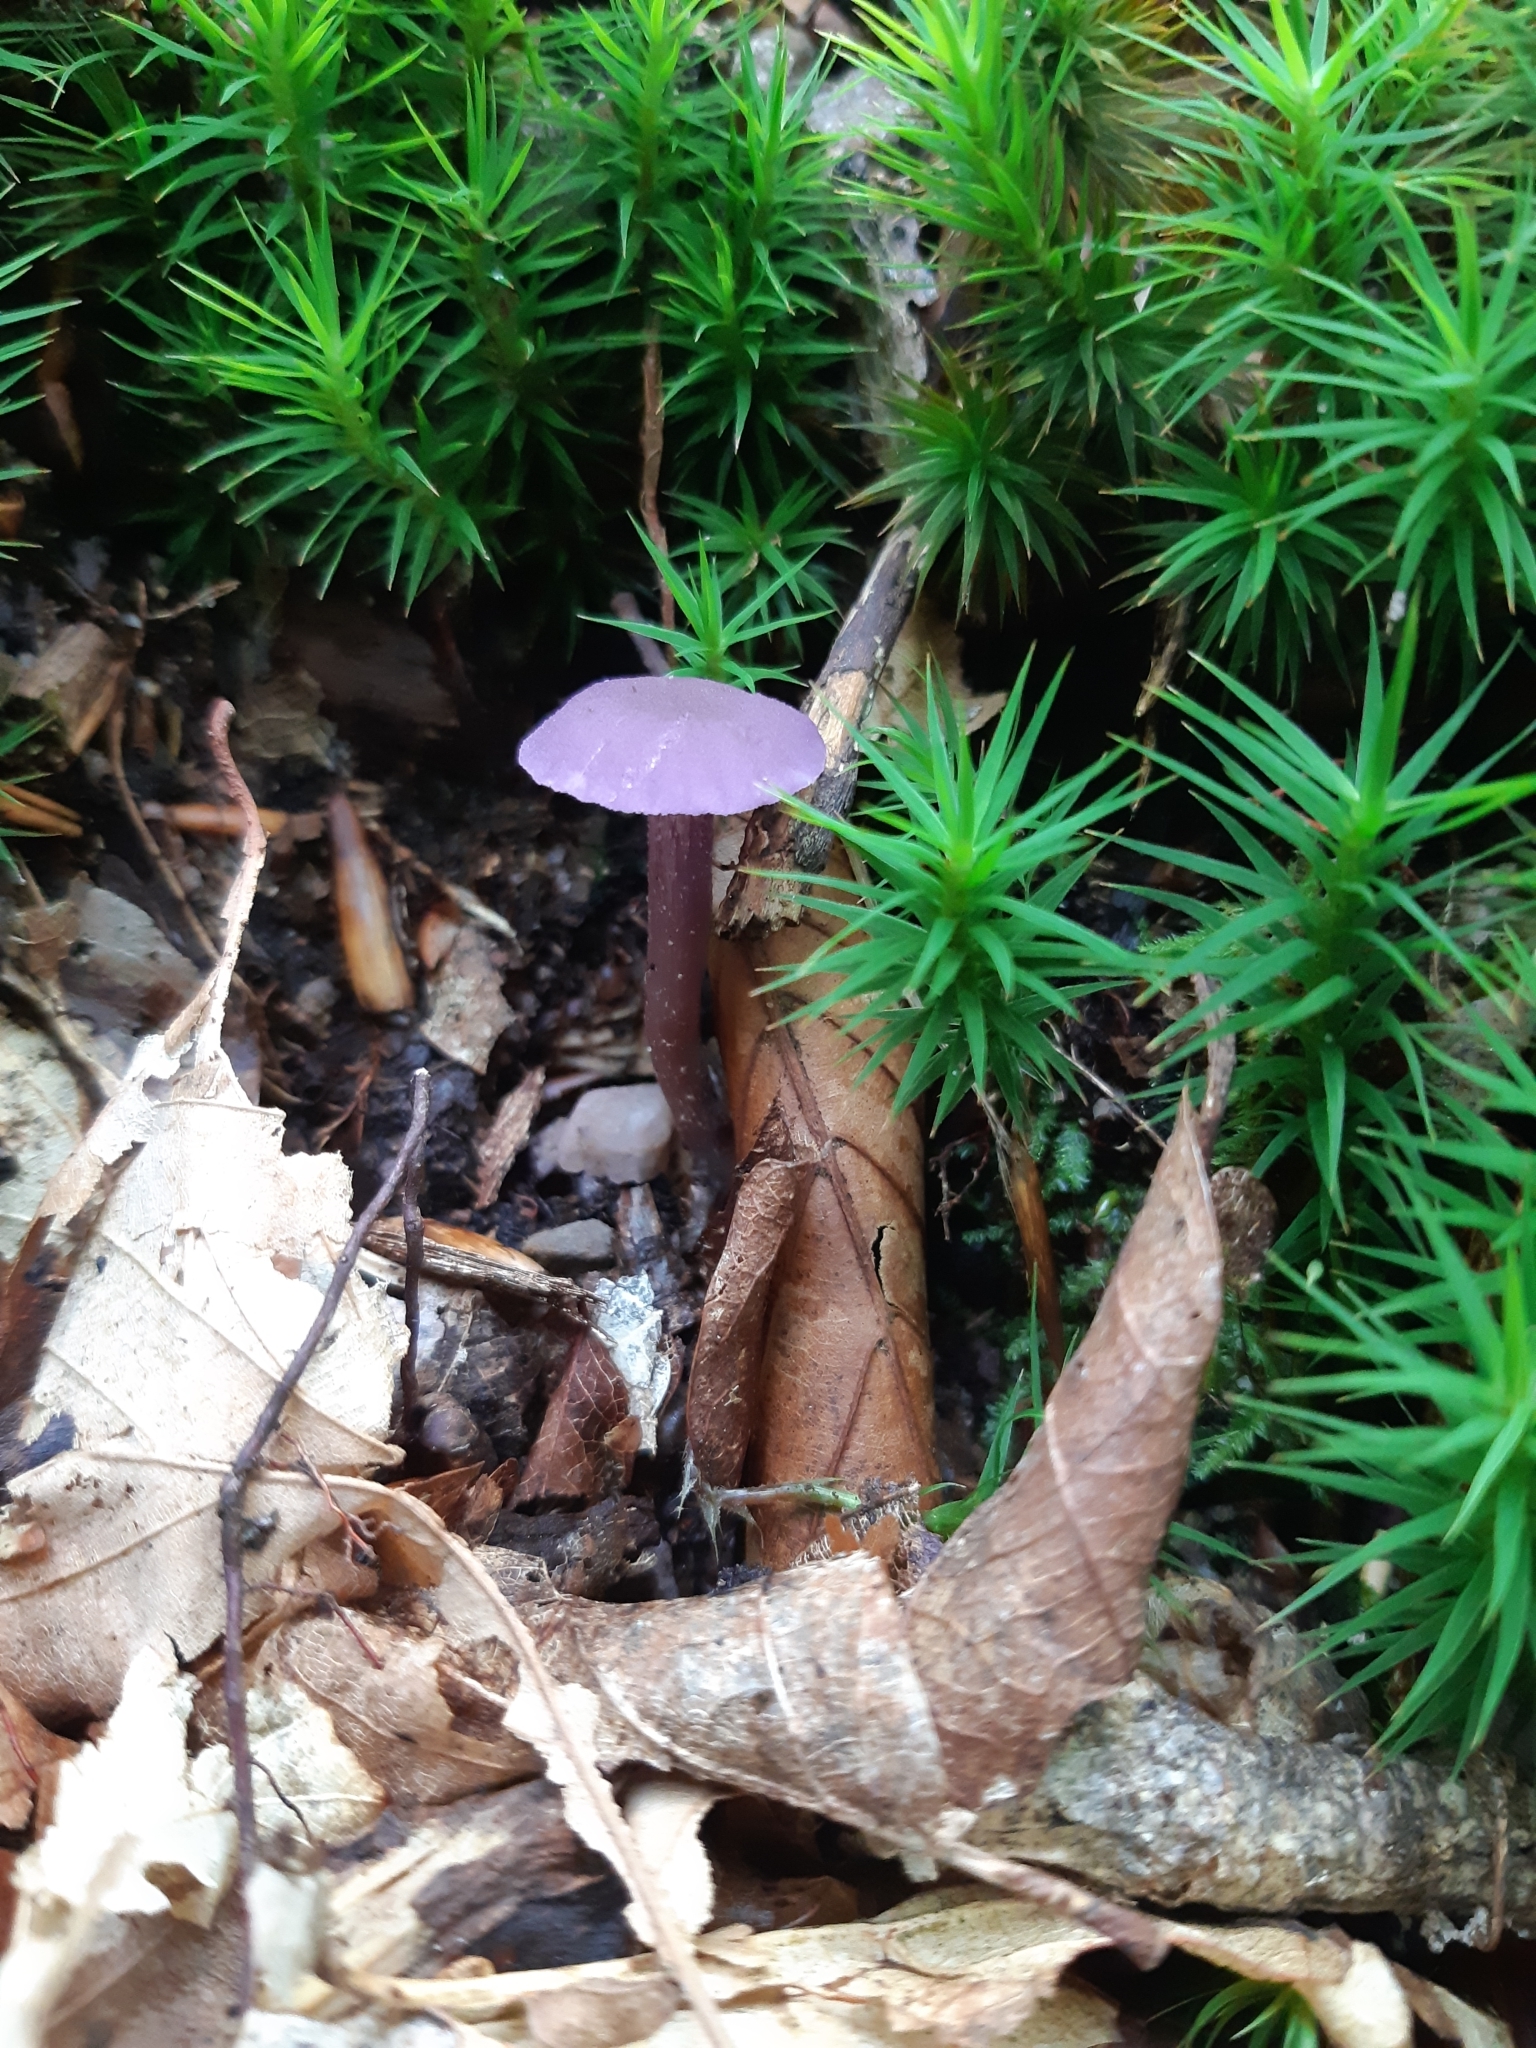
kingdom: Fungi
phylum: Basidiomycota
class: Agaricomycetes
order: Agaricales
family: Hydnangiaceae
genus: Laccaria
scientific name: Laccaria amethystina
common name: Amethyst deceiver
